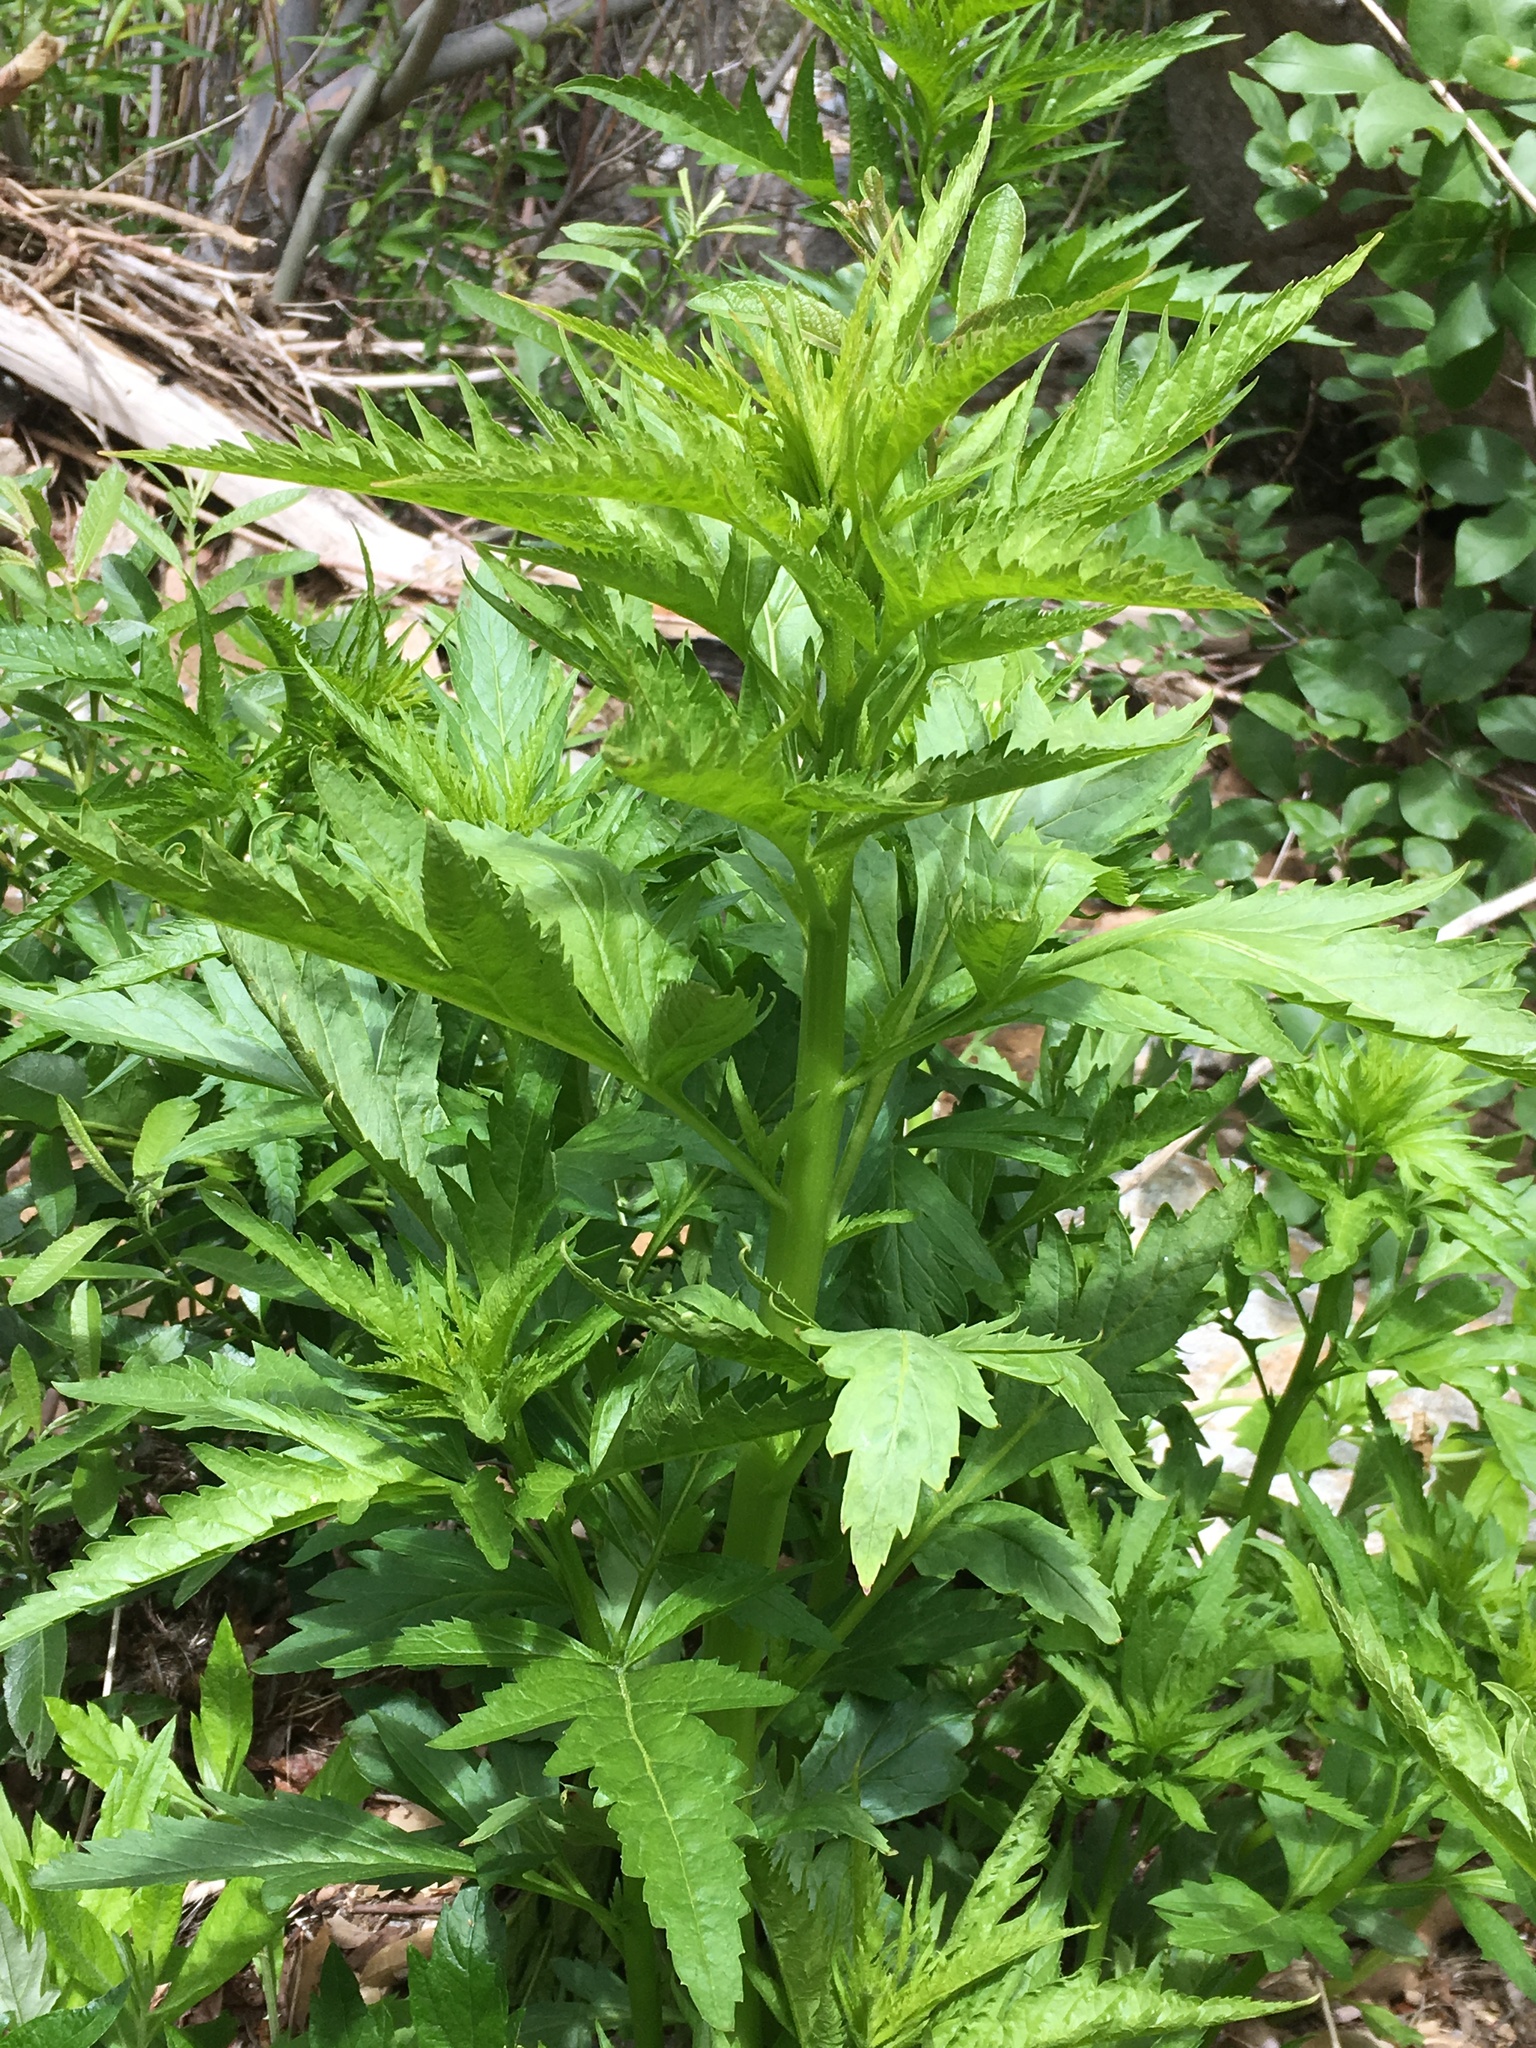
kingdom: Plantae
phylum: Tracheophyta
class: Magnoliopsida
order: Cucurbitales
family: Datiscaceae
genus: Datisca
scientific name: Datisca glomerata
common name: Durango-root
